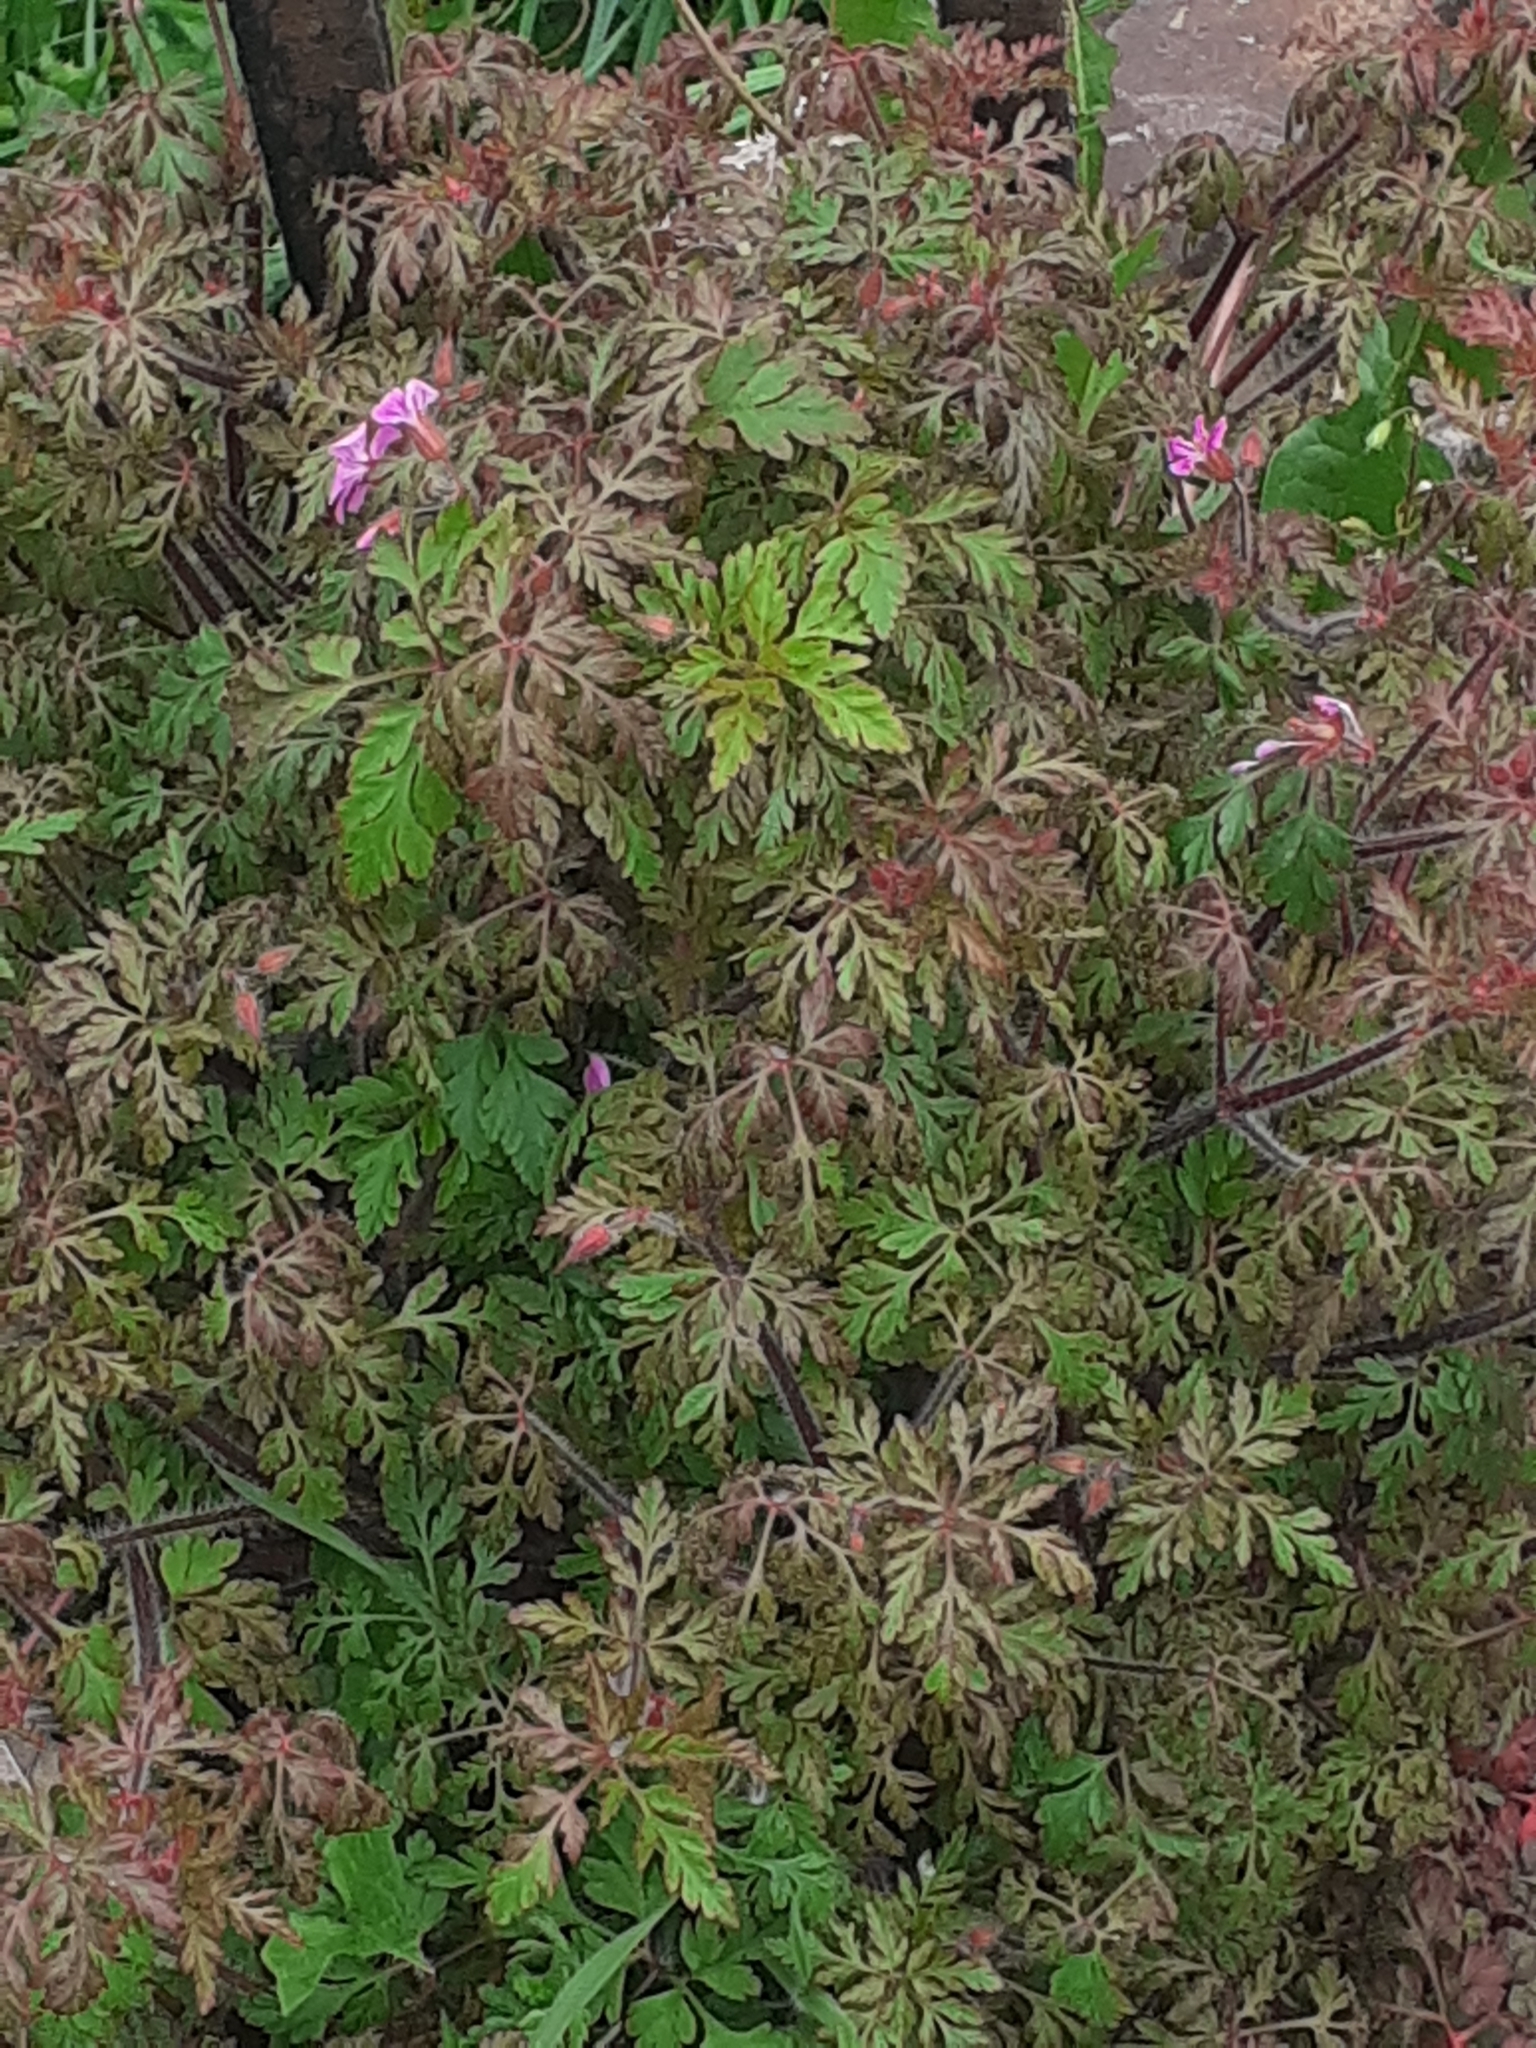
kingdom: Plantae
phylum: Tracheophyta
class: Magnoliopsida
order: Geraniales
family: Geraniaceae
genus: Geranium
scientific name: Geranium robertianum
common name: Herb-robert
